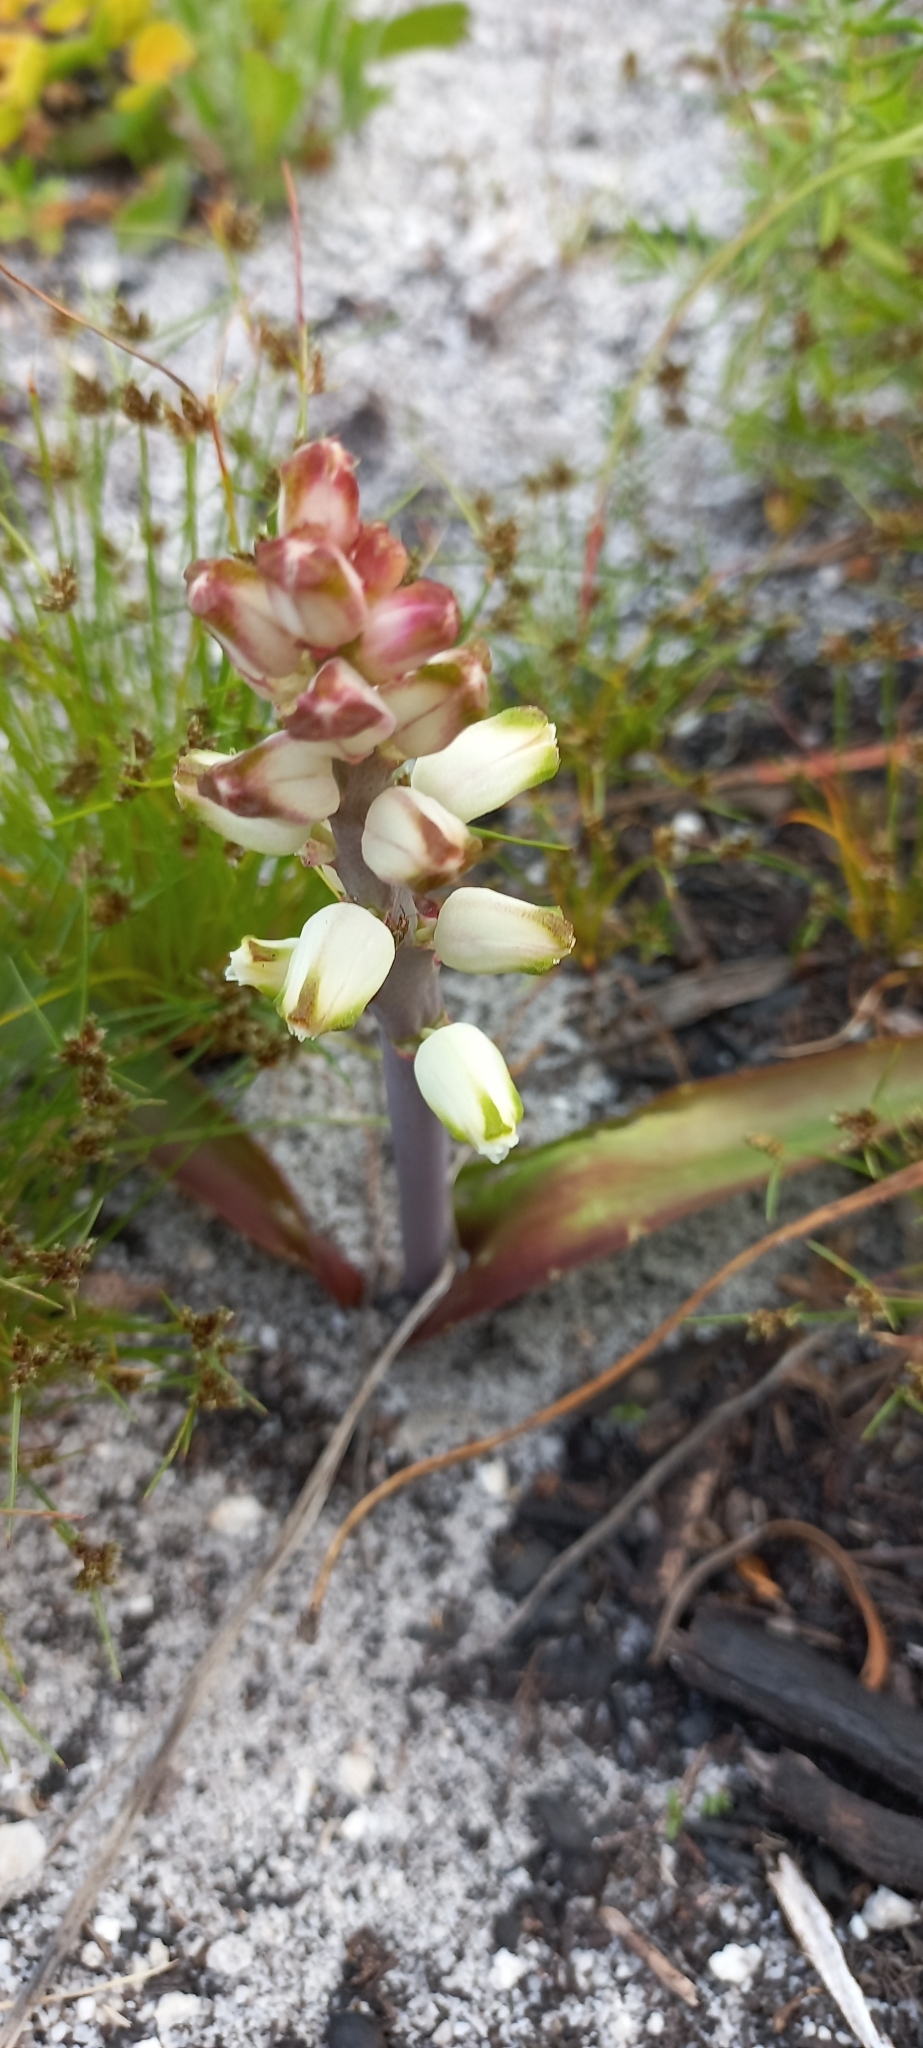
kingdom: Plantae
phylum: Tracheophyta
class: Liliopsida
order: Asparagales
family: Asparagaceae
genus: Lachenalia
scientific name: Lachenalia peersii
